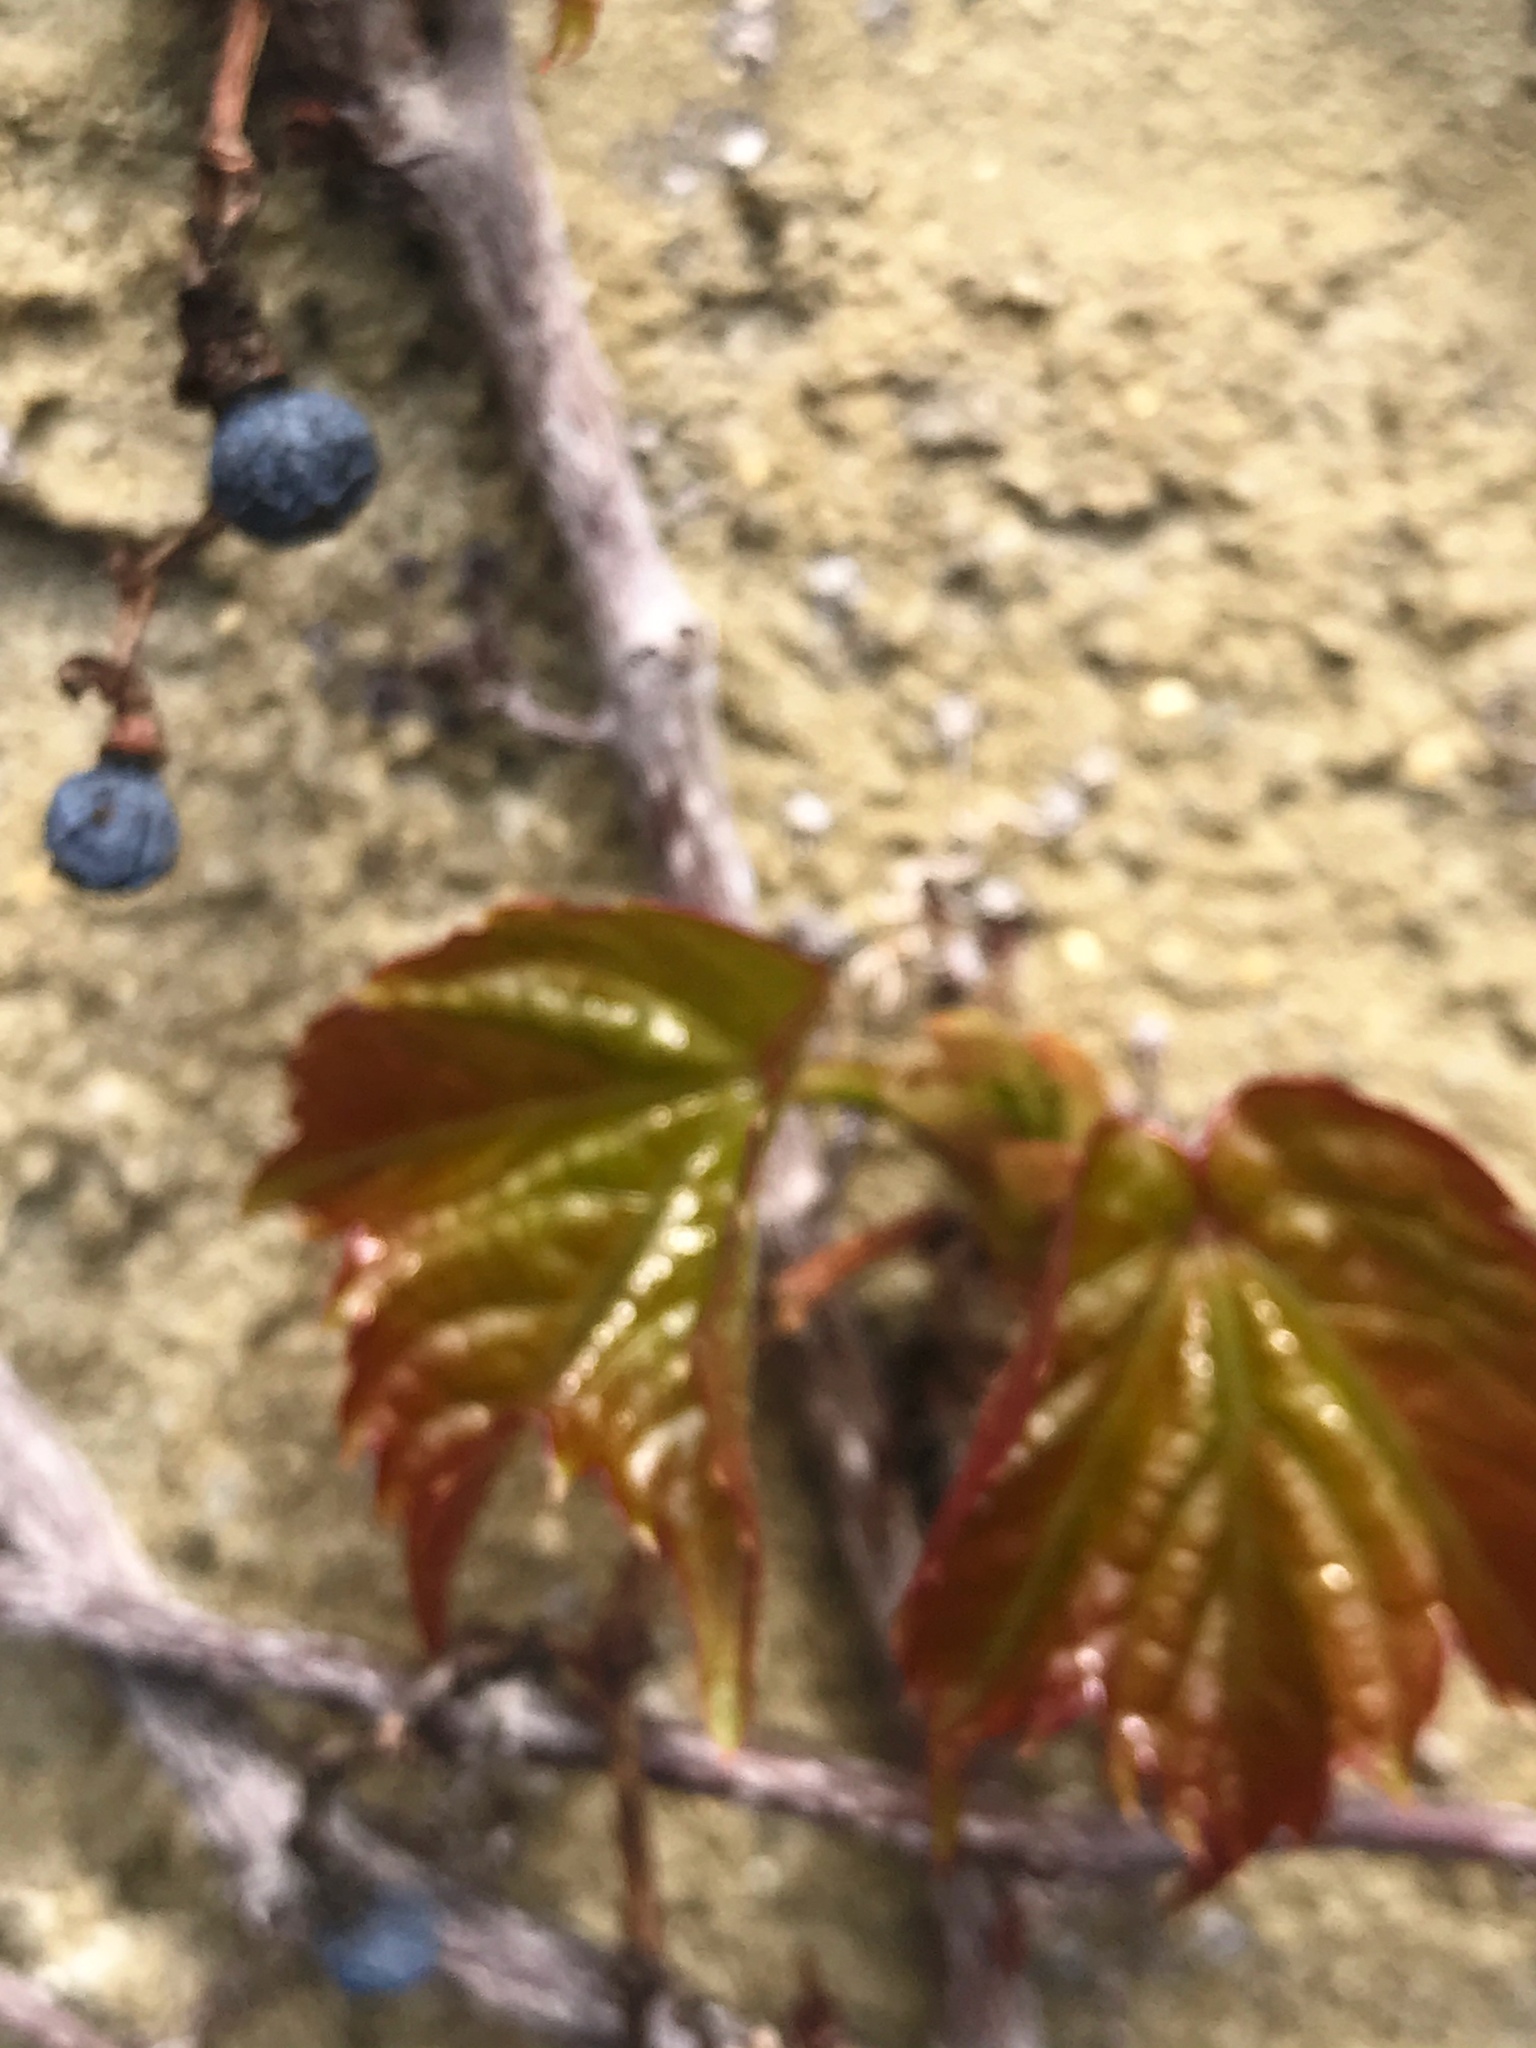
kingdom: Plantae
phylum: Tracheophyta
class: Magnoliopsida
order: Vitales
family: Vitaceae
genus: Parthenocissus
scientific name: Parthenocissus tricuspidata
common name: Boston ivy
